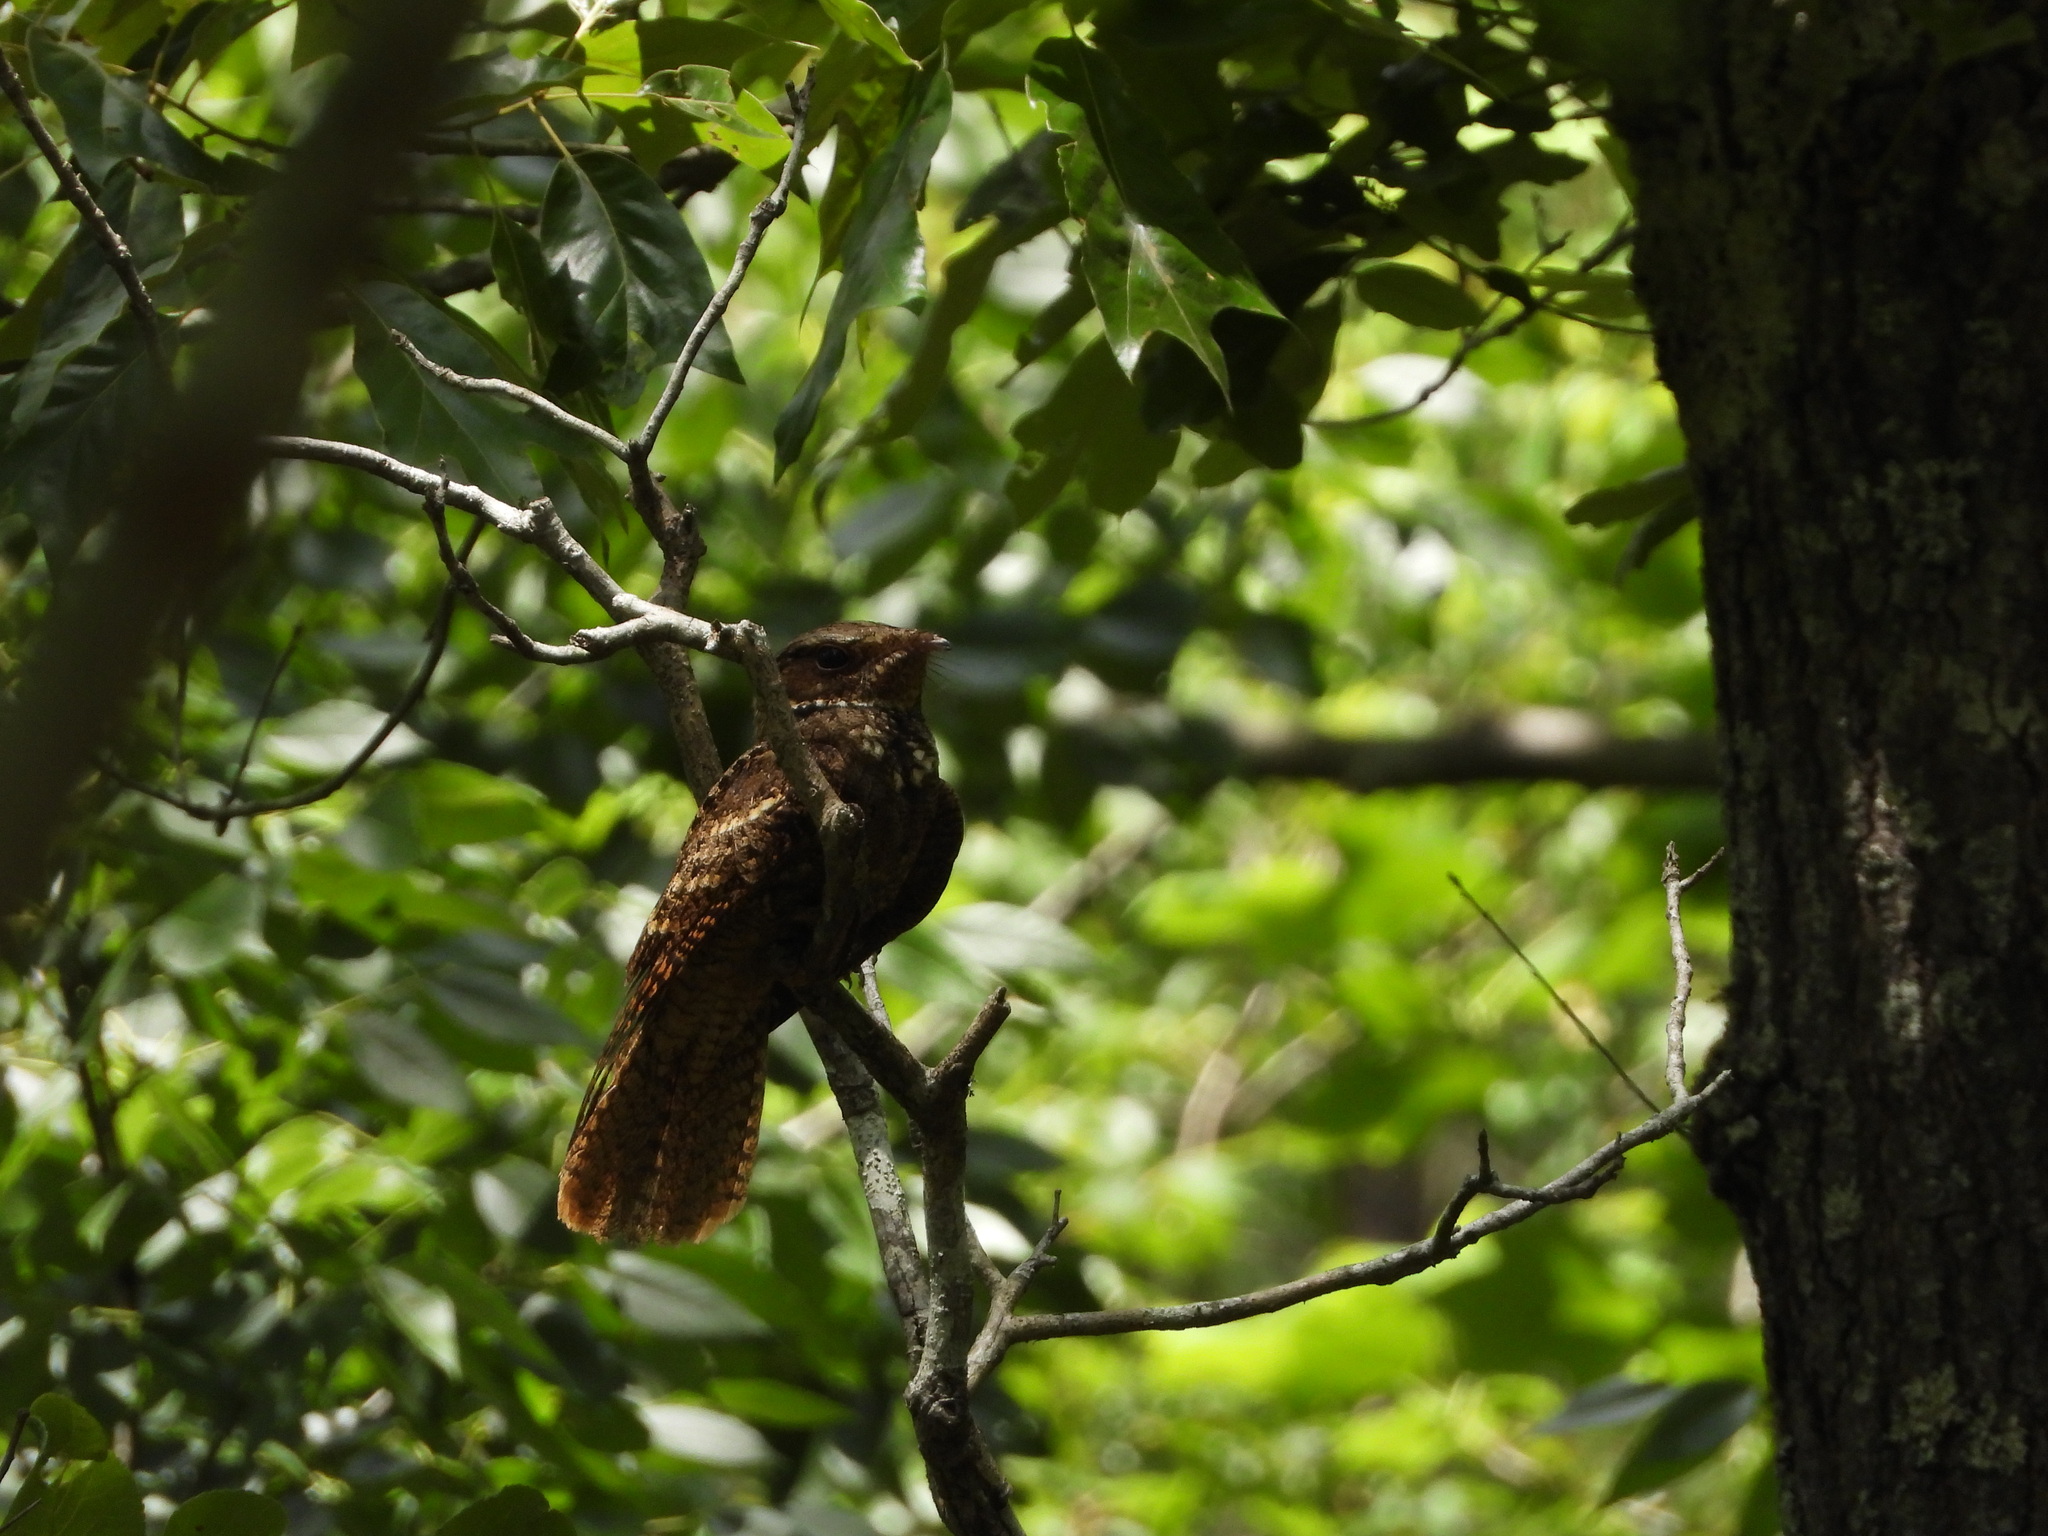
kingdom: Animalia
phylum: Chordata
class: Aves
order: Caprimulgiformes
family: Caprimulgidae
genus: Antrostomus
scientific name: Antrostomus carolinensis
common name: Chuck-will's-widow
